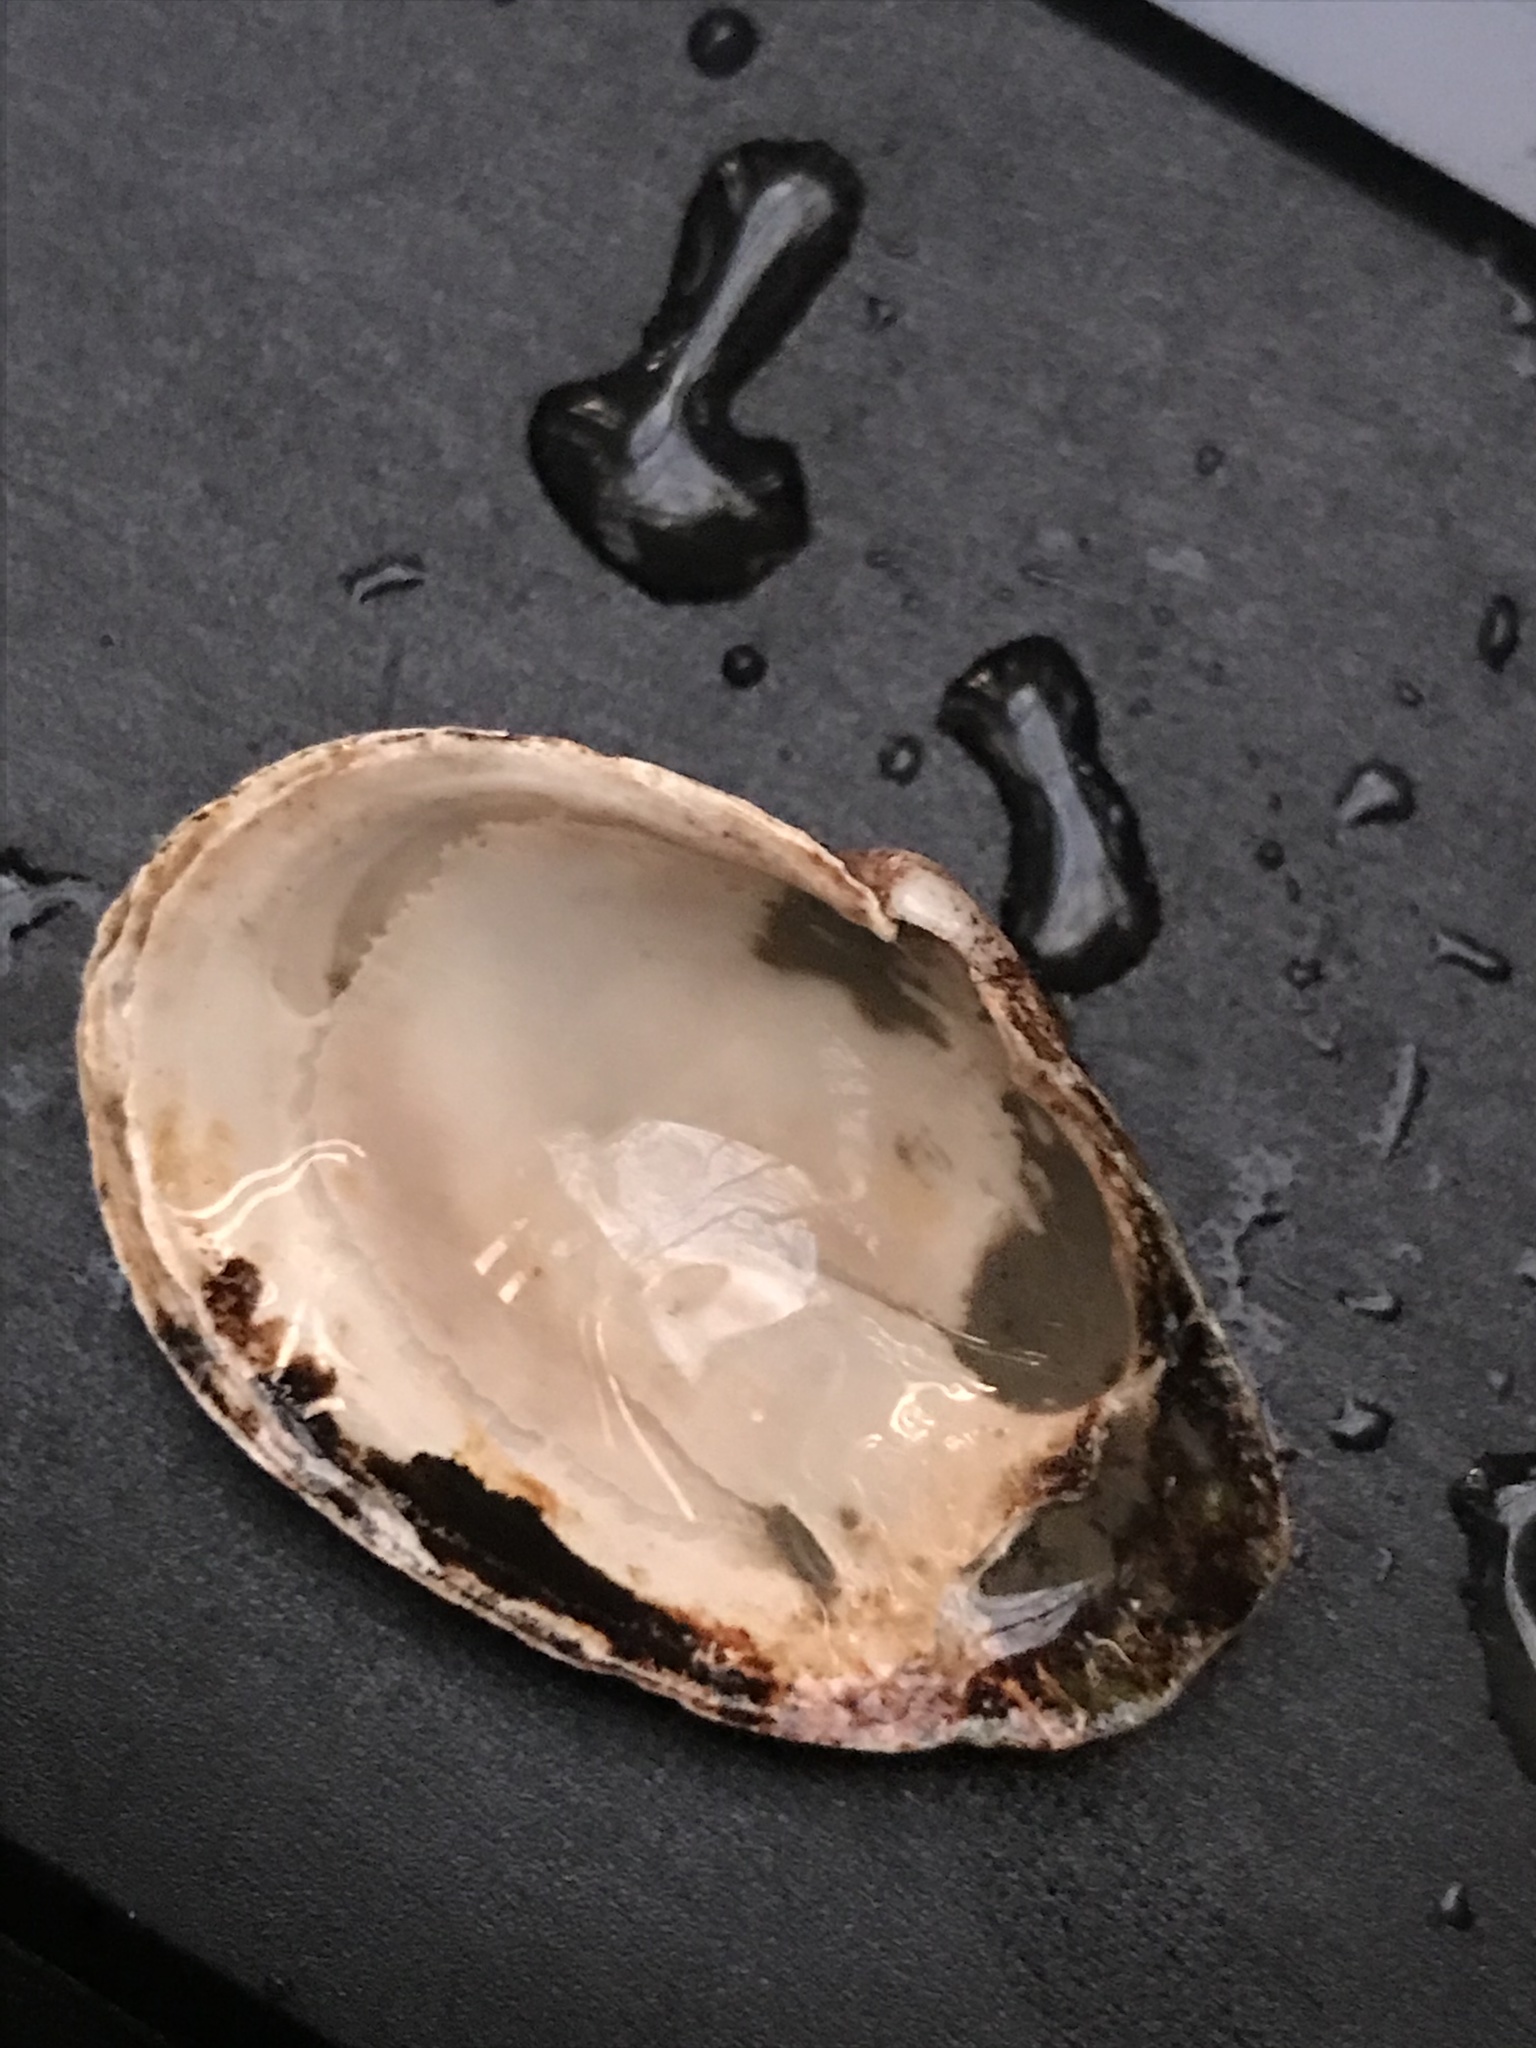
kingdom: Animalia
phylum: Mollusca
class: Bivalvia
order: Myida
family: Myidae
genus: Mya
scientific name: Mya arenaria
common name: Soft-shelled clam
